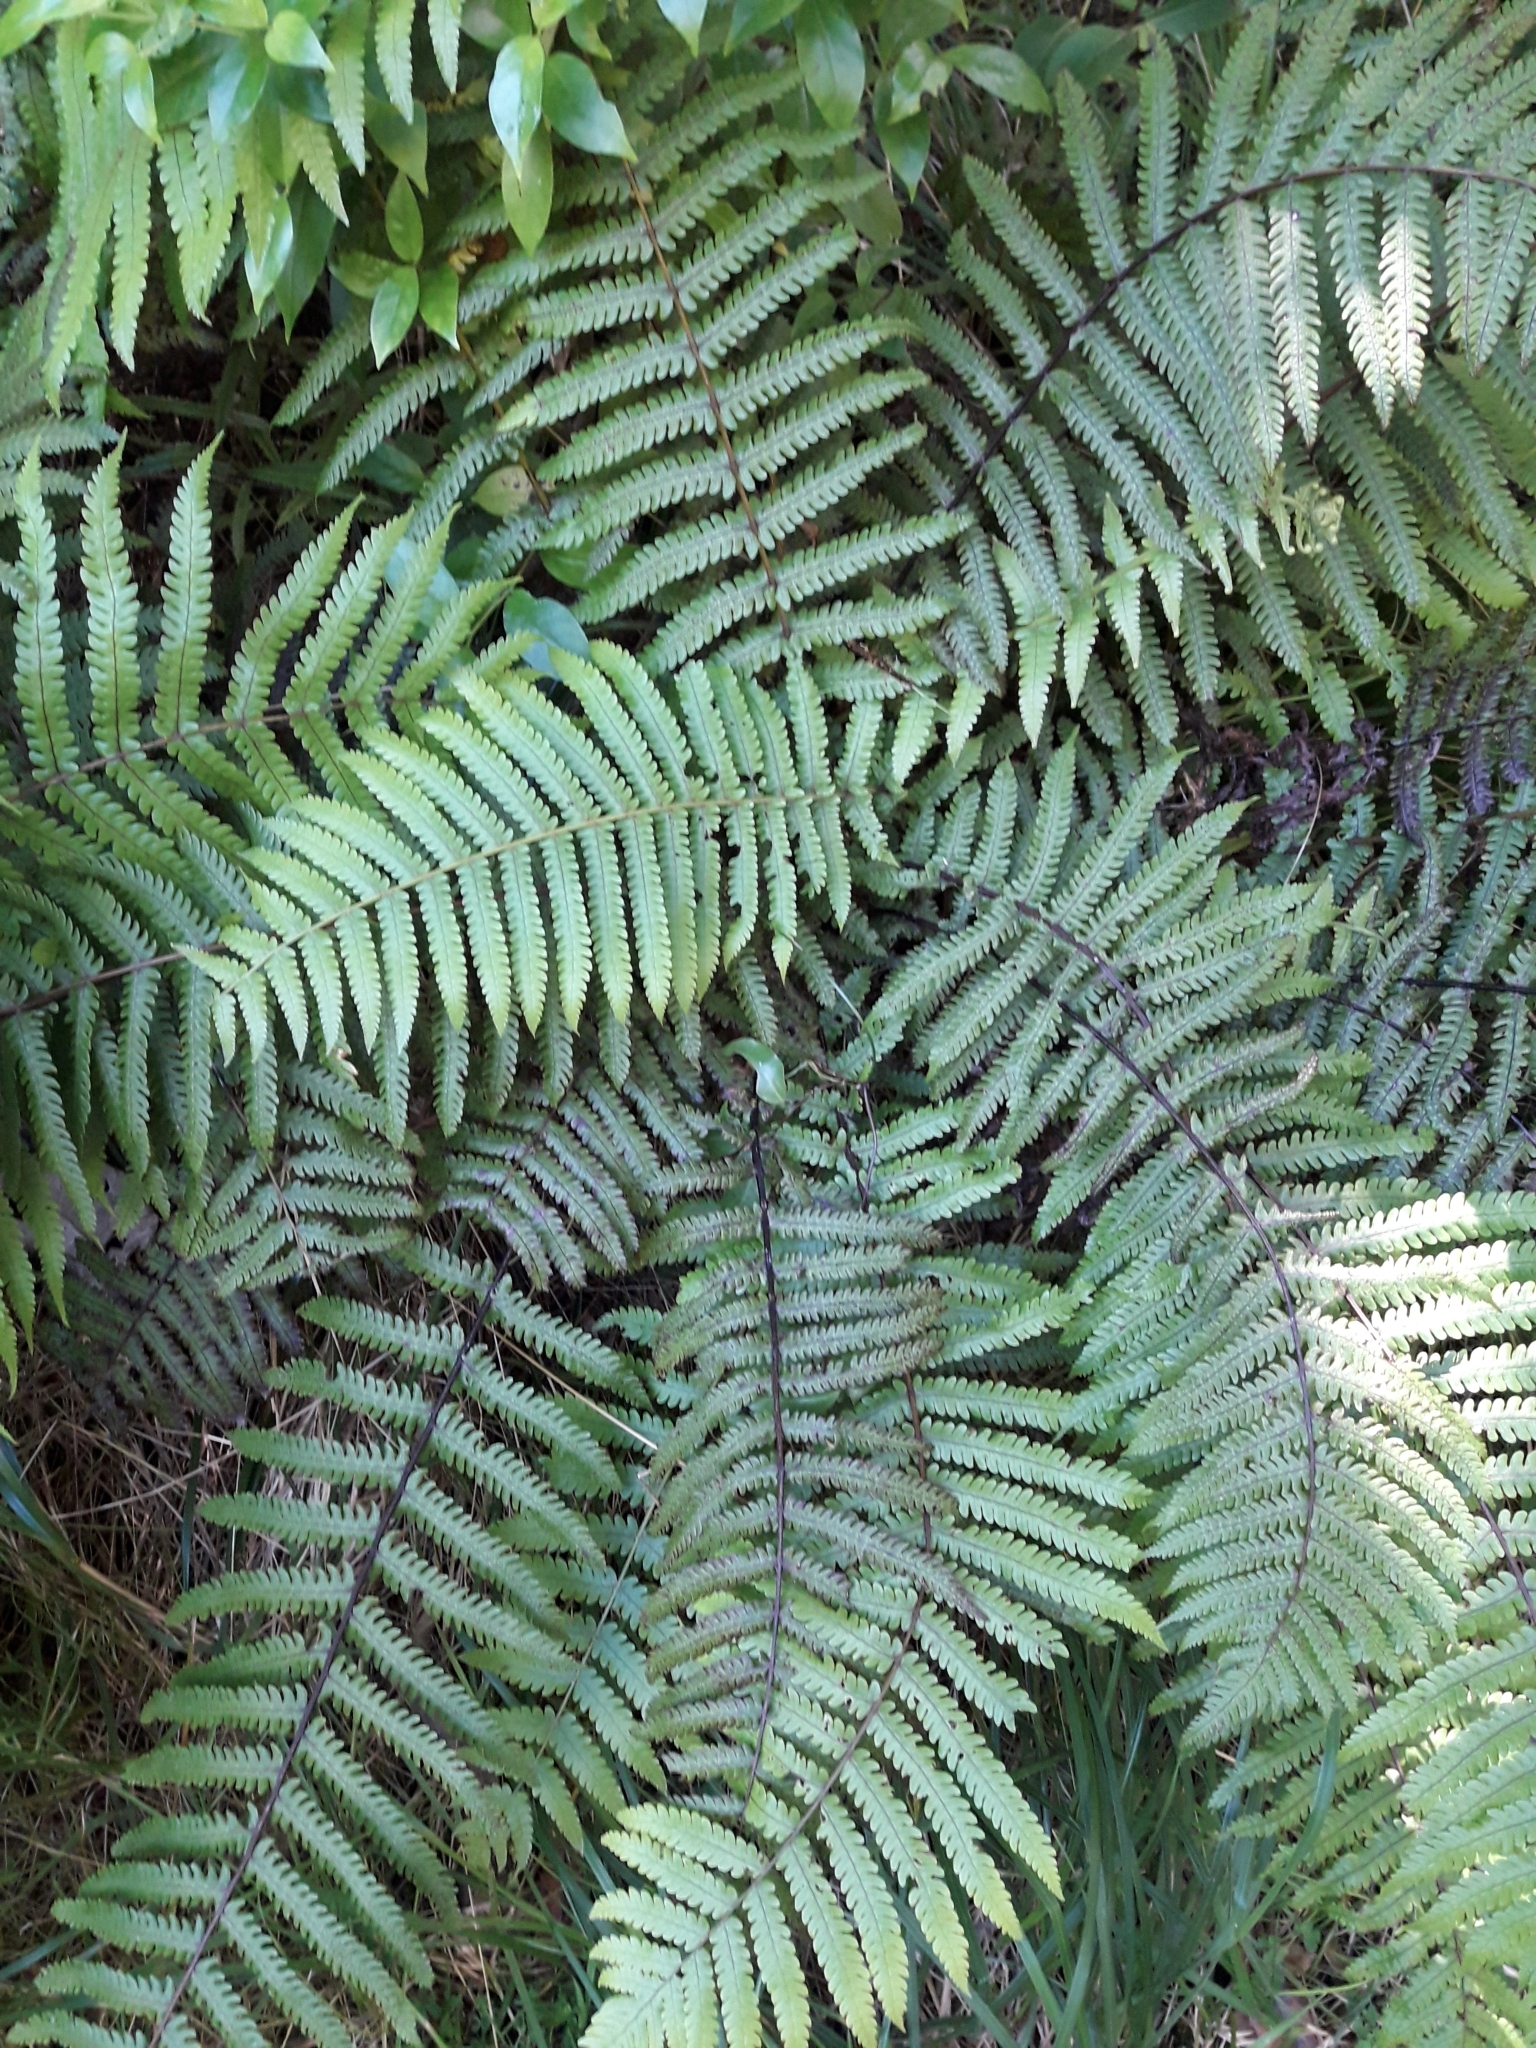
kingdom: Plantae
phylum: Tracheophyta
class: Polypodiopsida
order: Polypodiales
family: Thelypteridaceae
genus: Pakau
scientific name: Pakau pennigera
